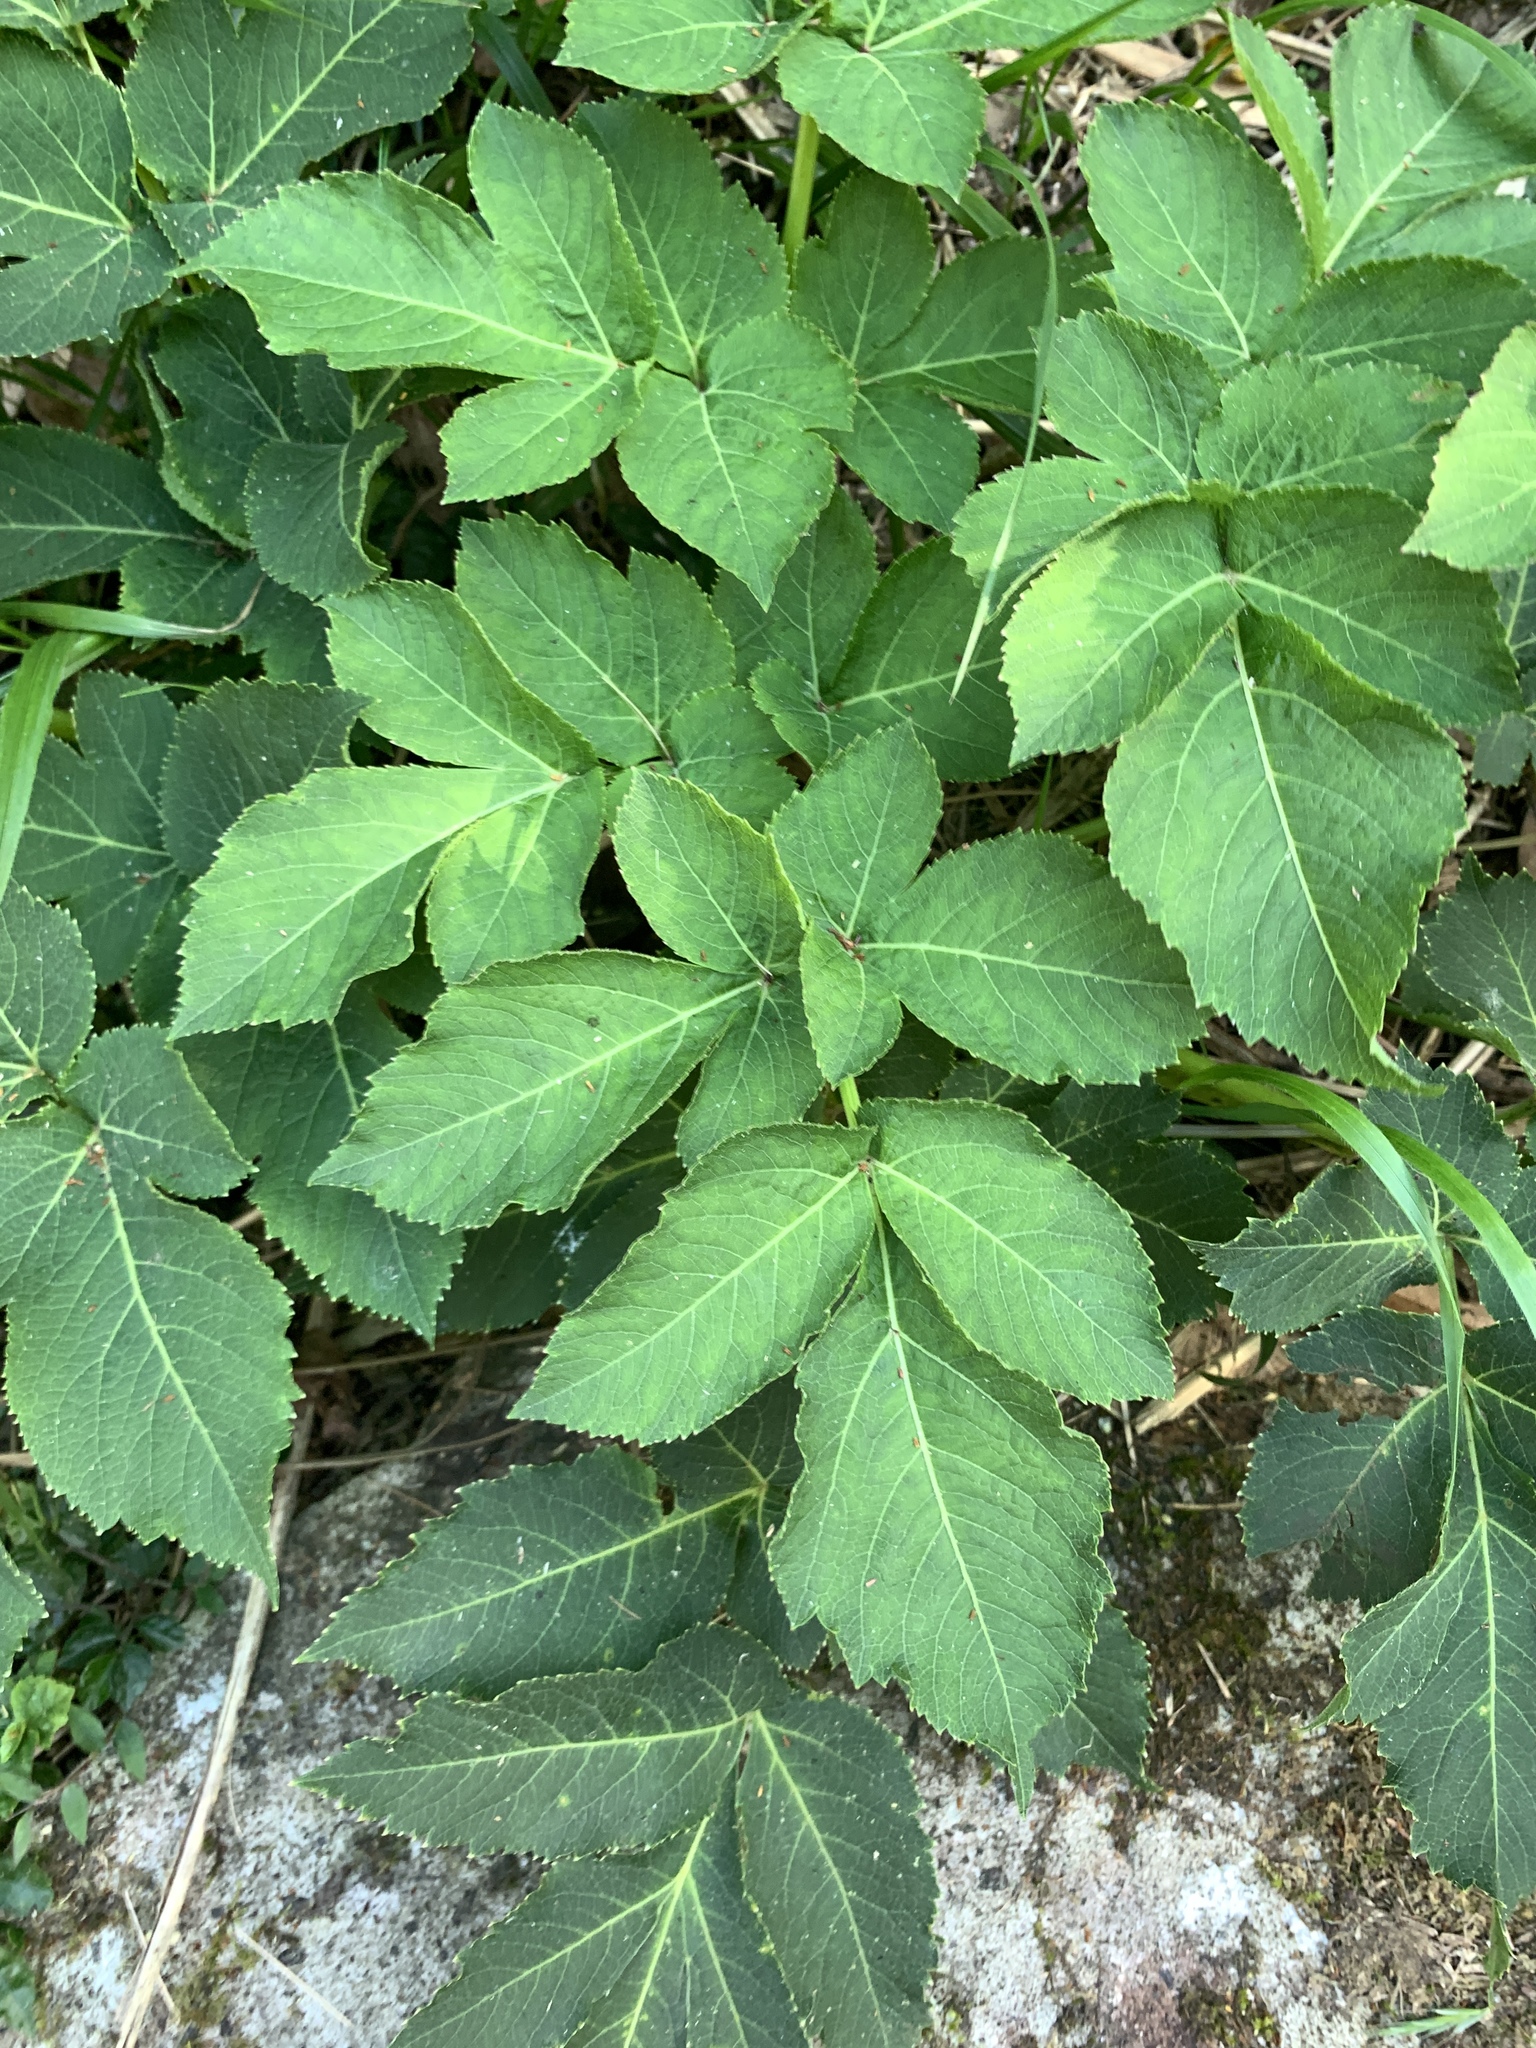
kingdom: Plantae
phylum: Tracheophyta
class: Magnoliopsida
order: Apiales
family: Apiaceae
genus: Angelica
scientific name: Angelica pubescens
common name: Pubescent angelica
